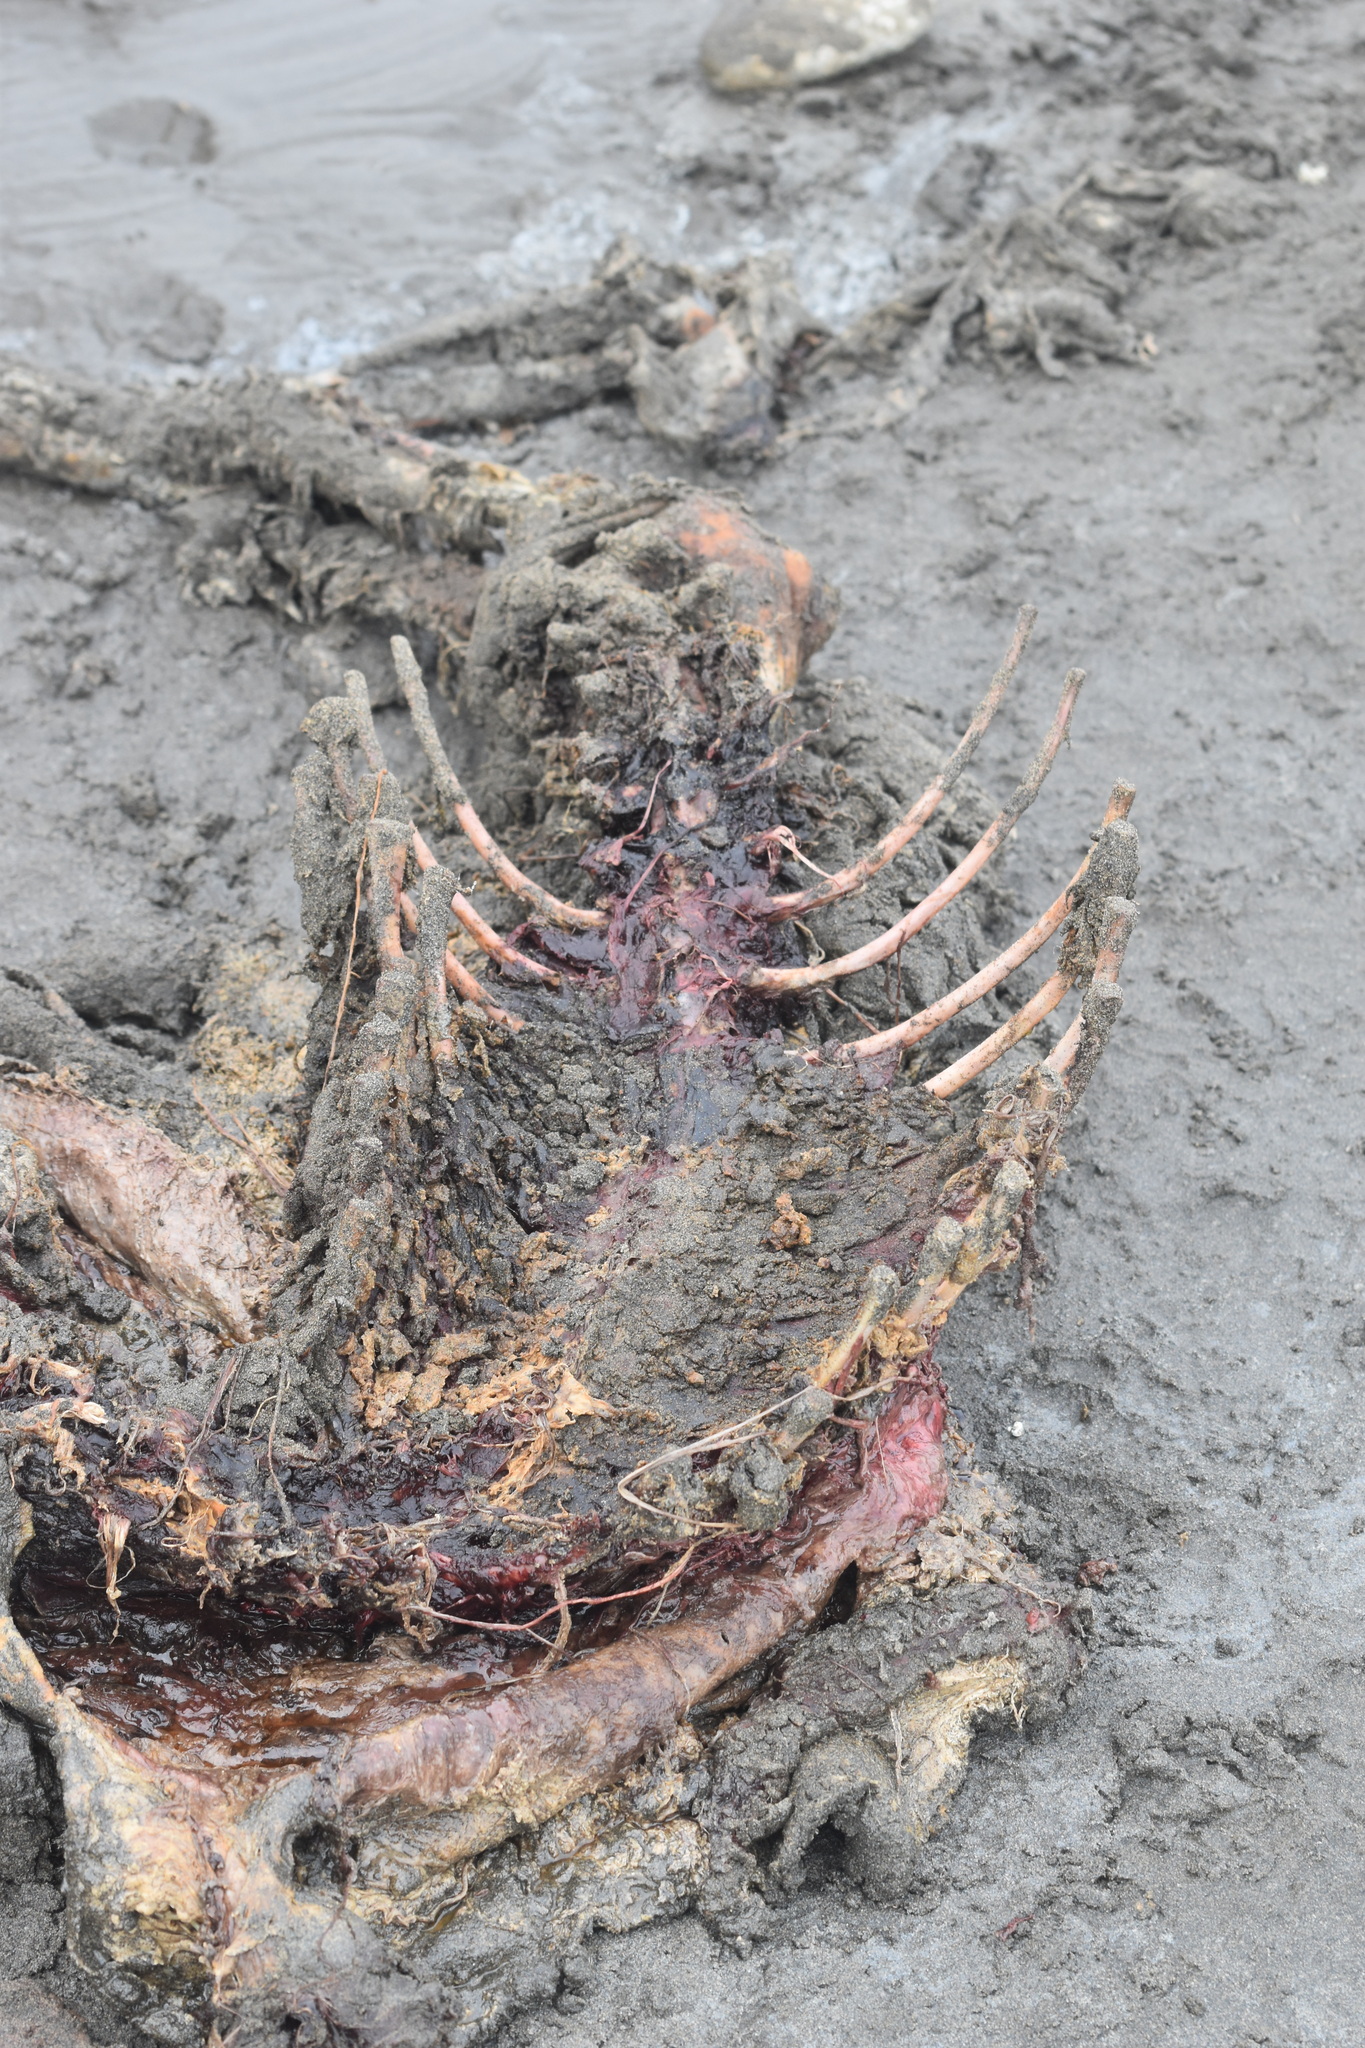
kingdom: Animalia
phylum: Chordata
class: Mammalia
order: Carnivora
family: Phocidae
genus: Pusa
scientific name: Pusa caspica
